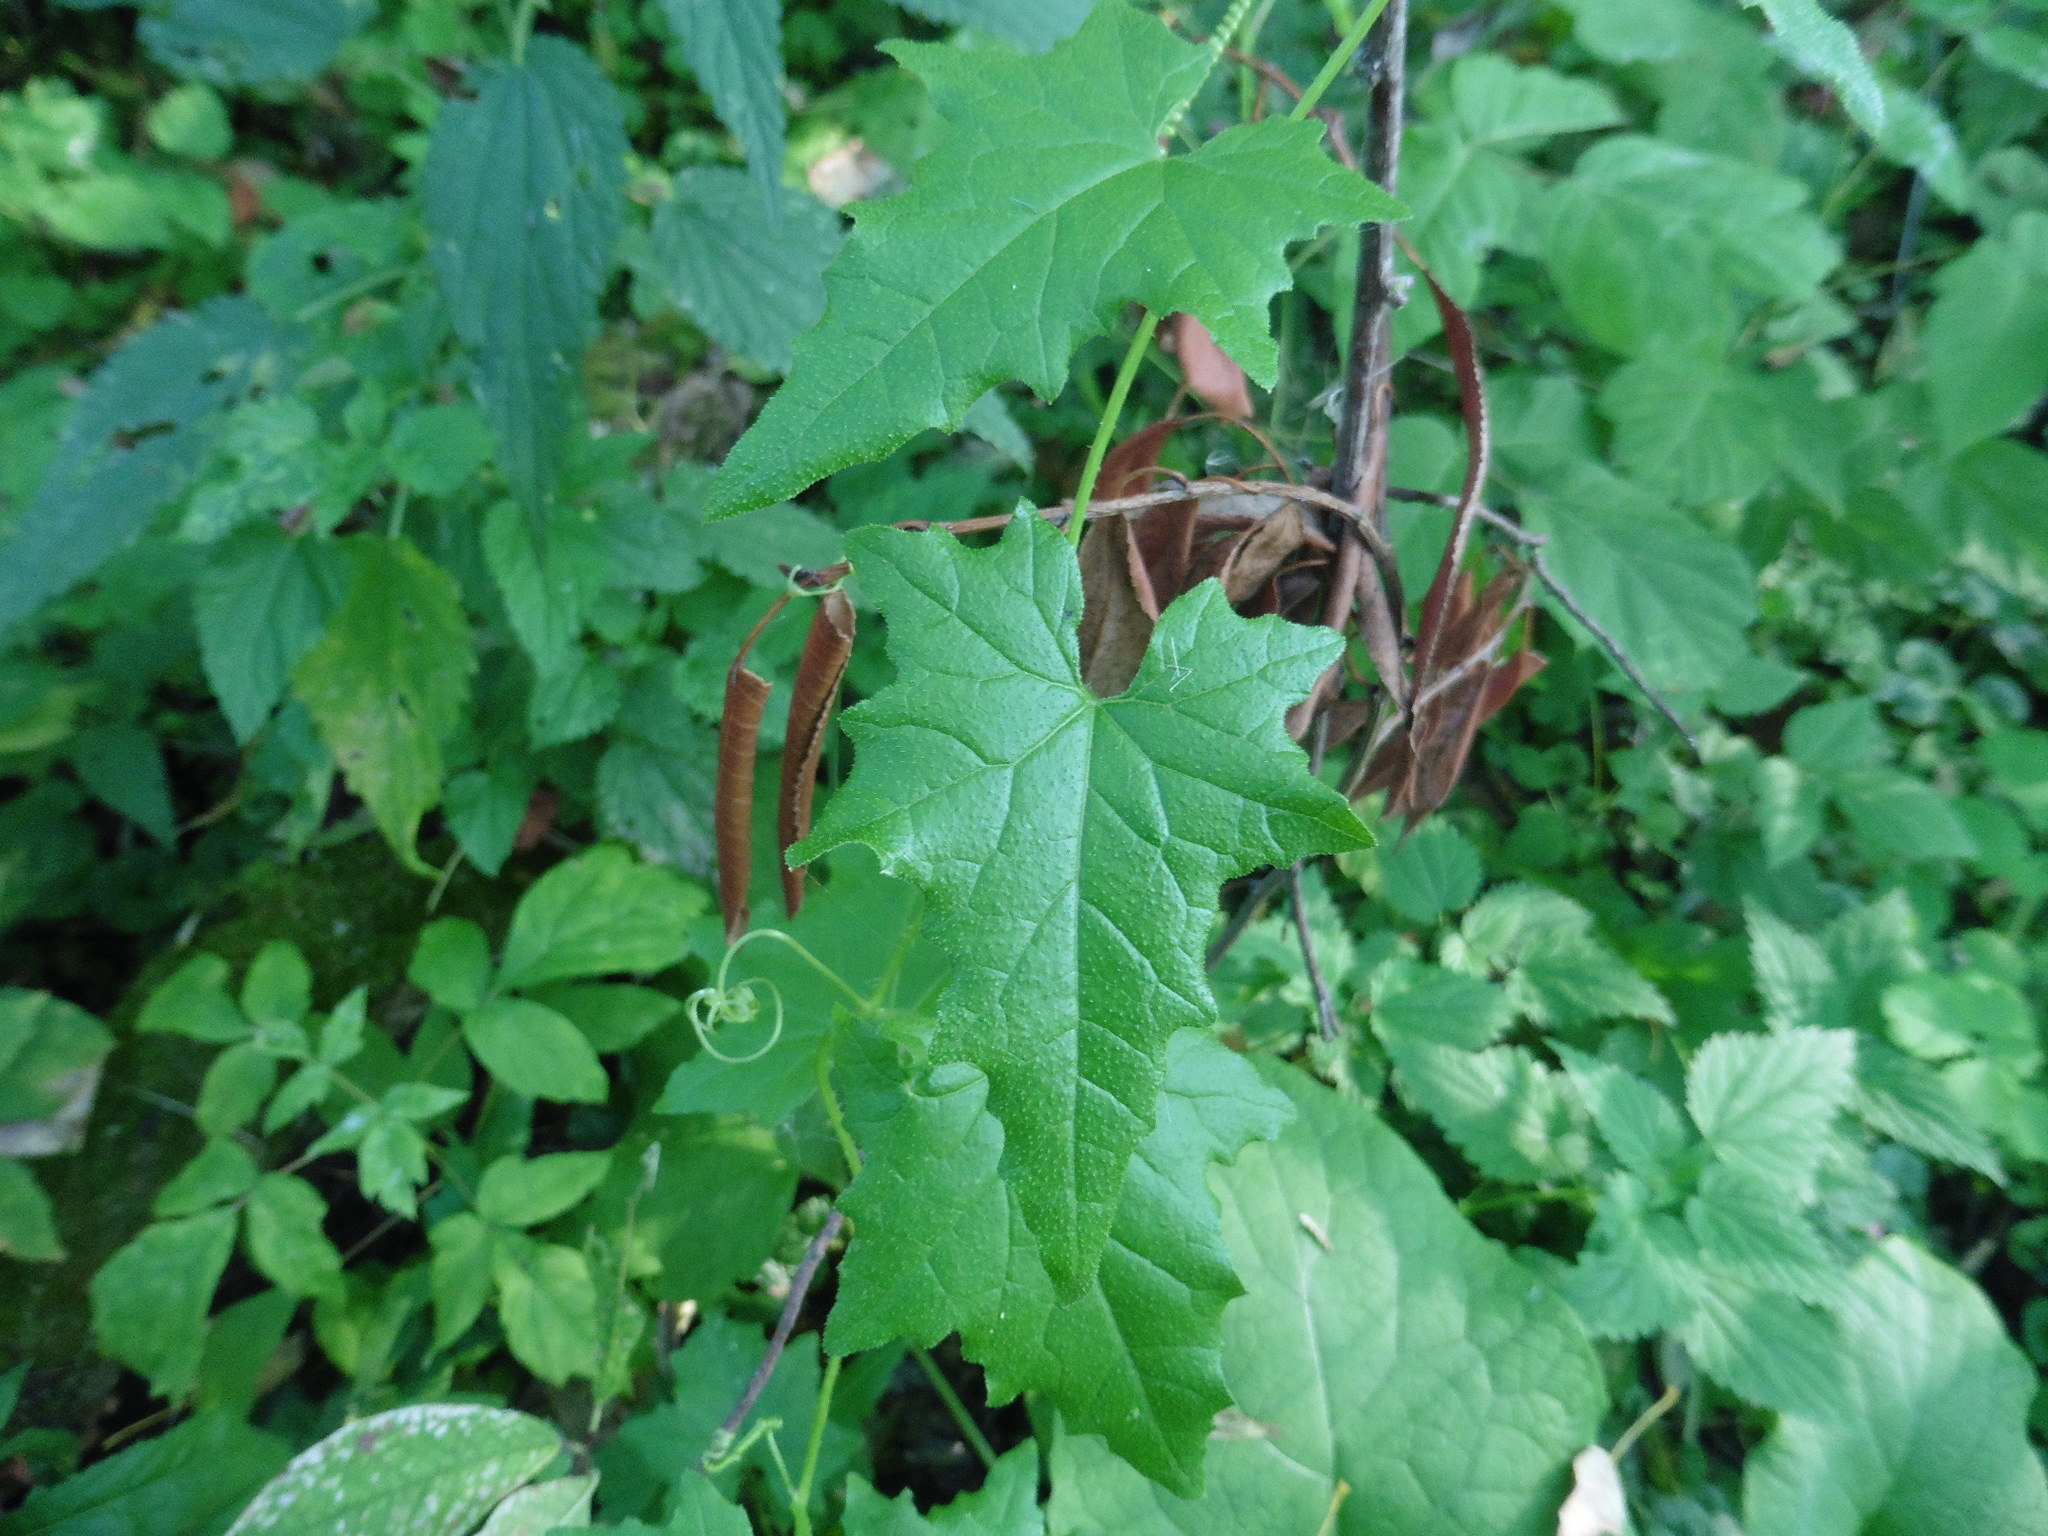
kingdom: Plantae
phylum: Tracheophyta
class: Magnoliopsida
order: Cucurbitales
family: Cucurbitaceae
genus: Bryonia
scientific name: Bryonia alba
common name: White bryony
